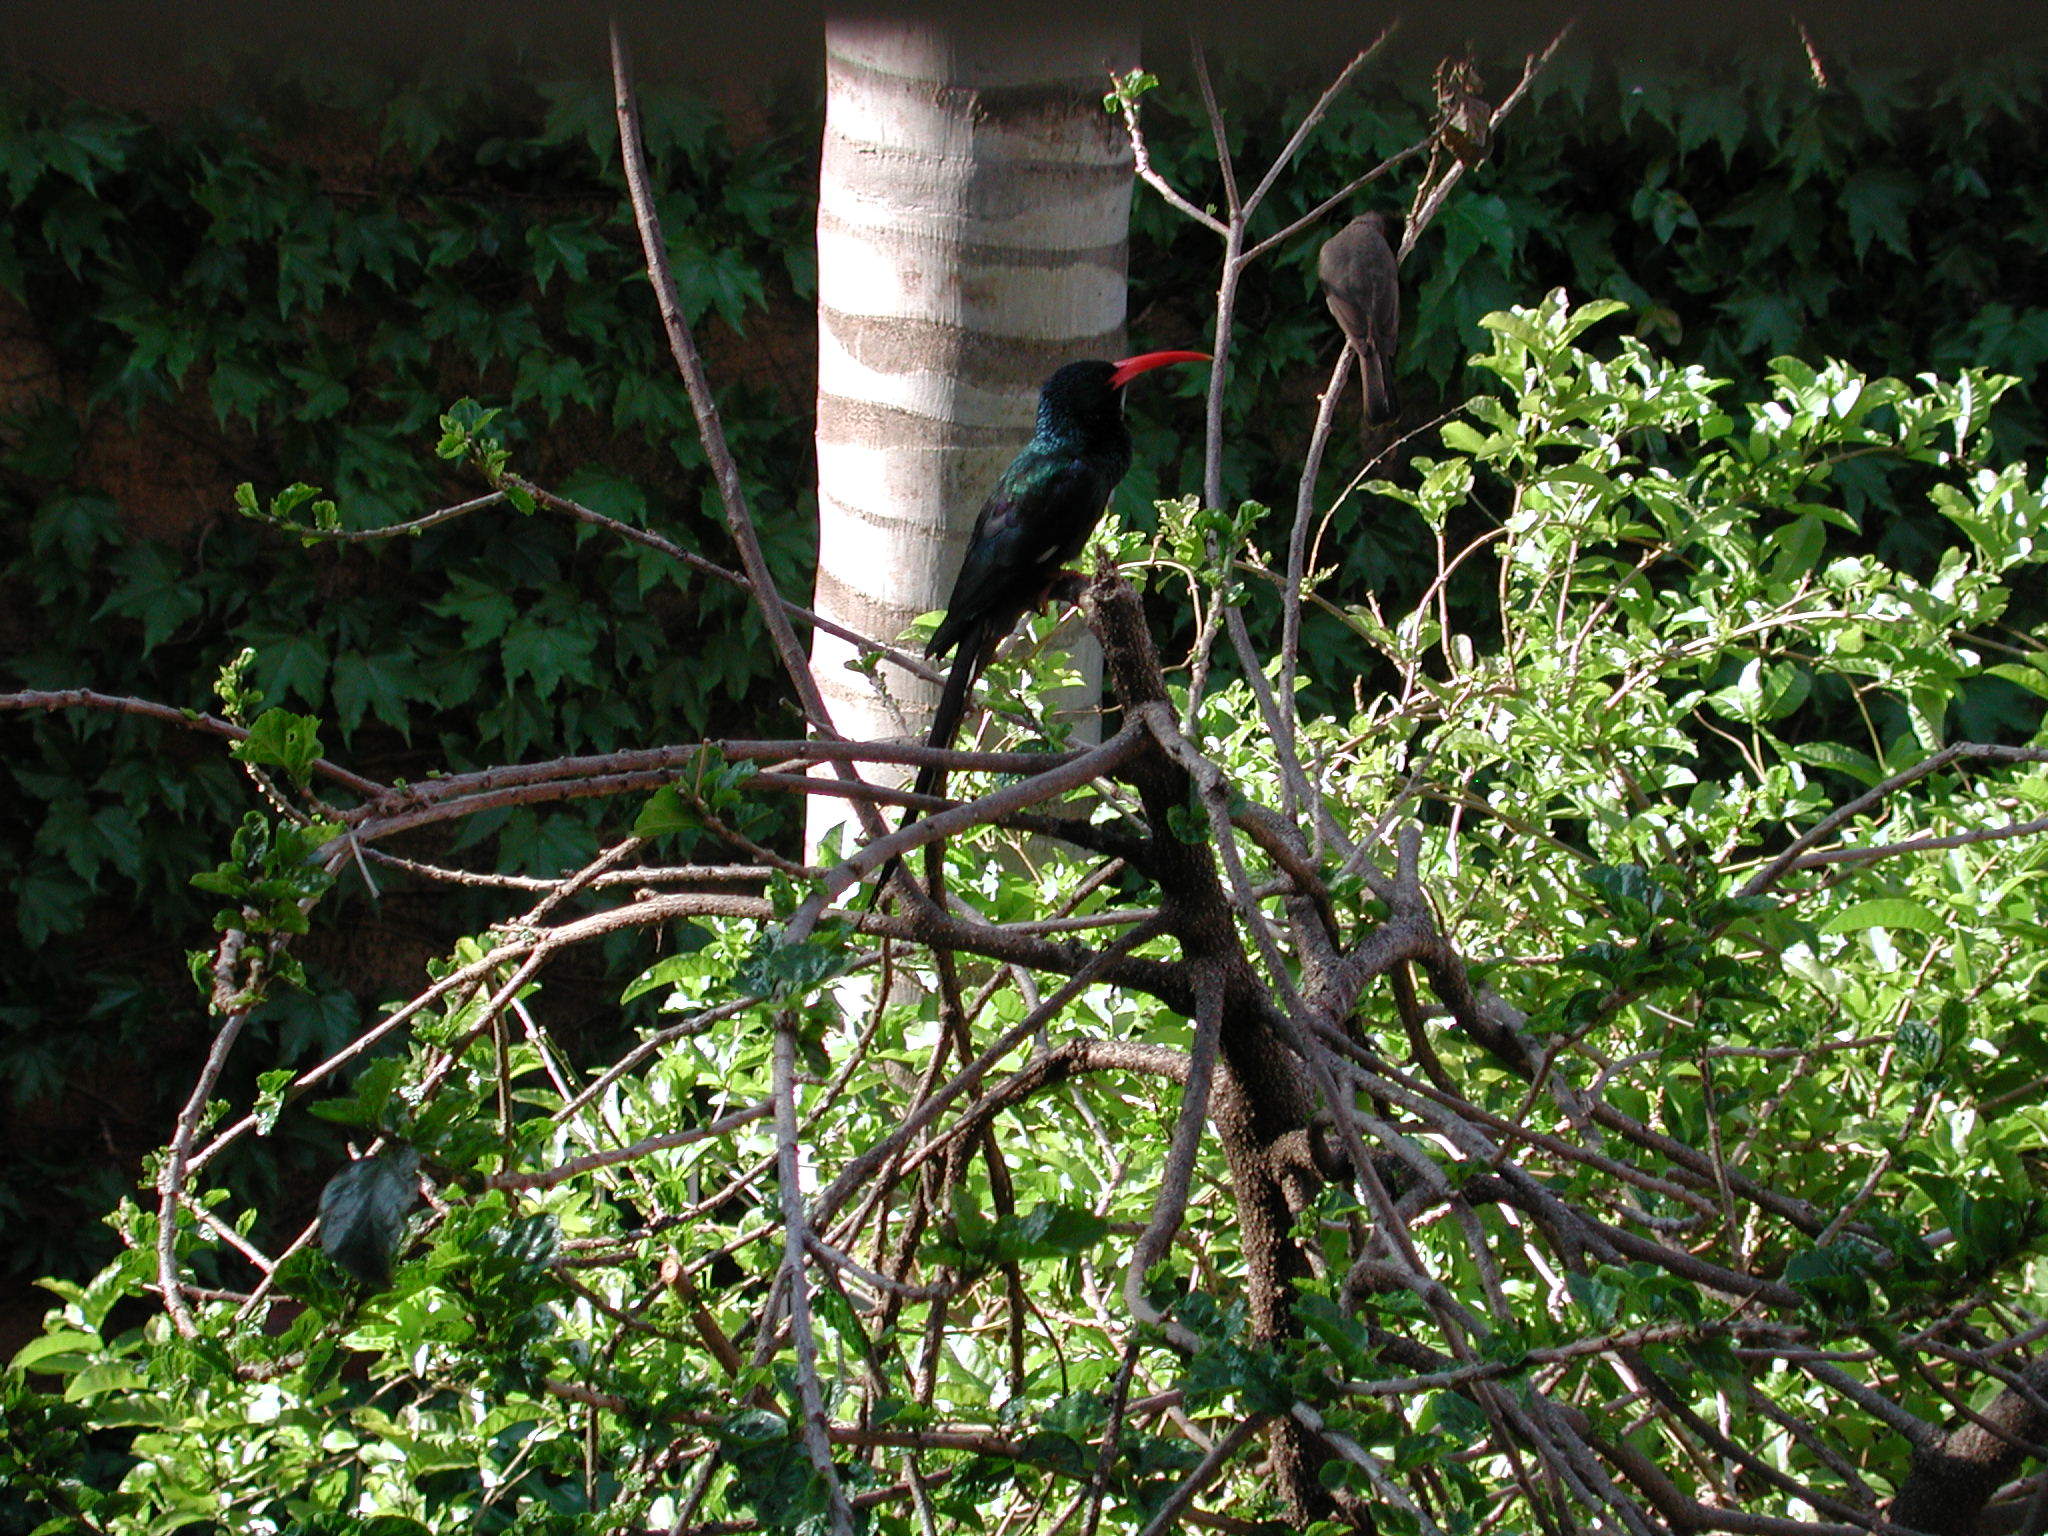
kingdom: Animalia
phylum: Chordata
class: Aves
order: Bucerotiformes
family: Phoeniculidae
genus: Phoeniculus
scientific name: Phoeniculus purpureus
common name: Green woodhoopoe
